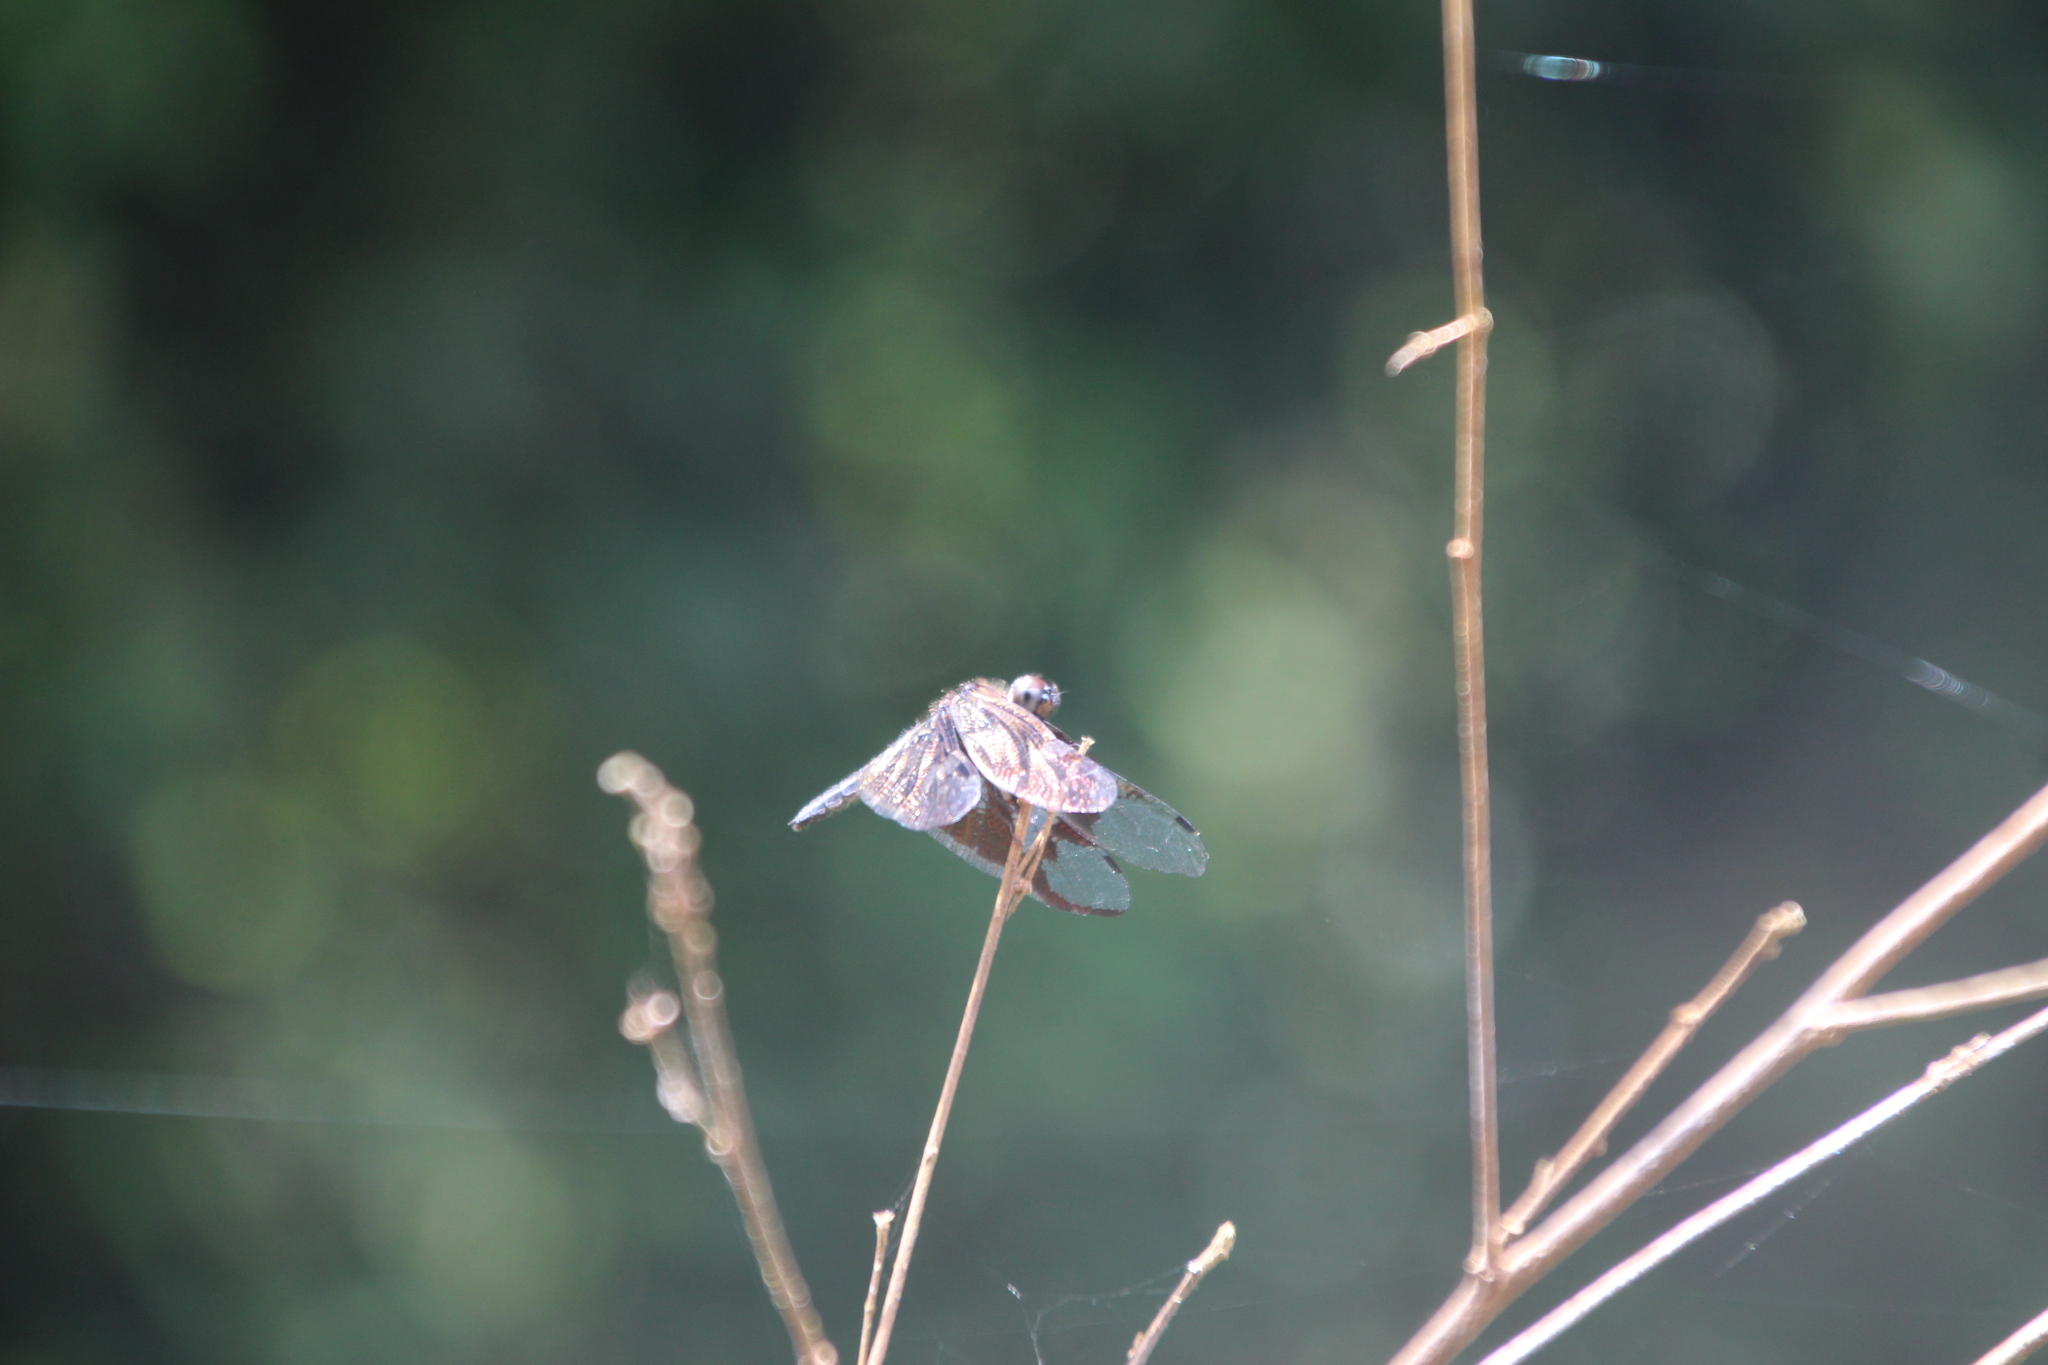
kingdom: Animalia
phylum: Arthropoda
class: Insecta
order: Odonata
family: Libellulidae
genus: Rhyothemis
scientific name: Rhyothemis fenestrina
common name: Skylight flutterer
